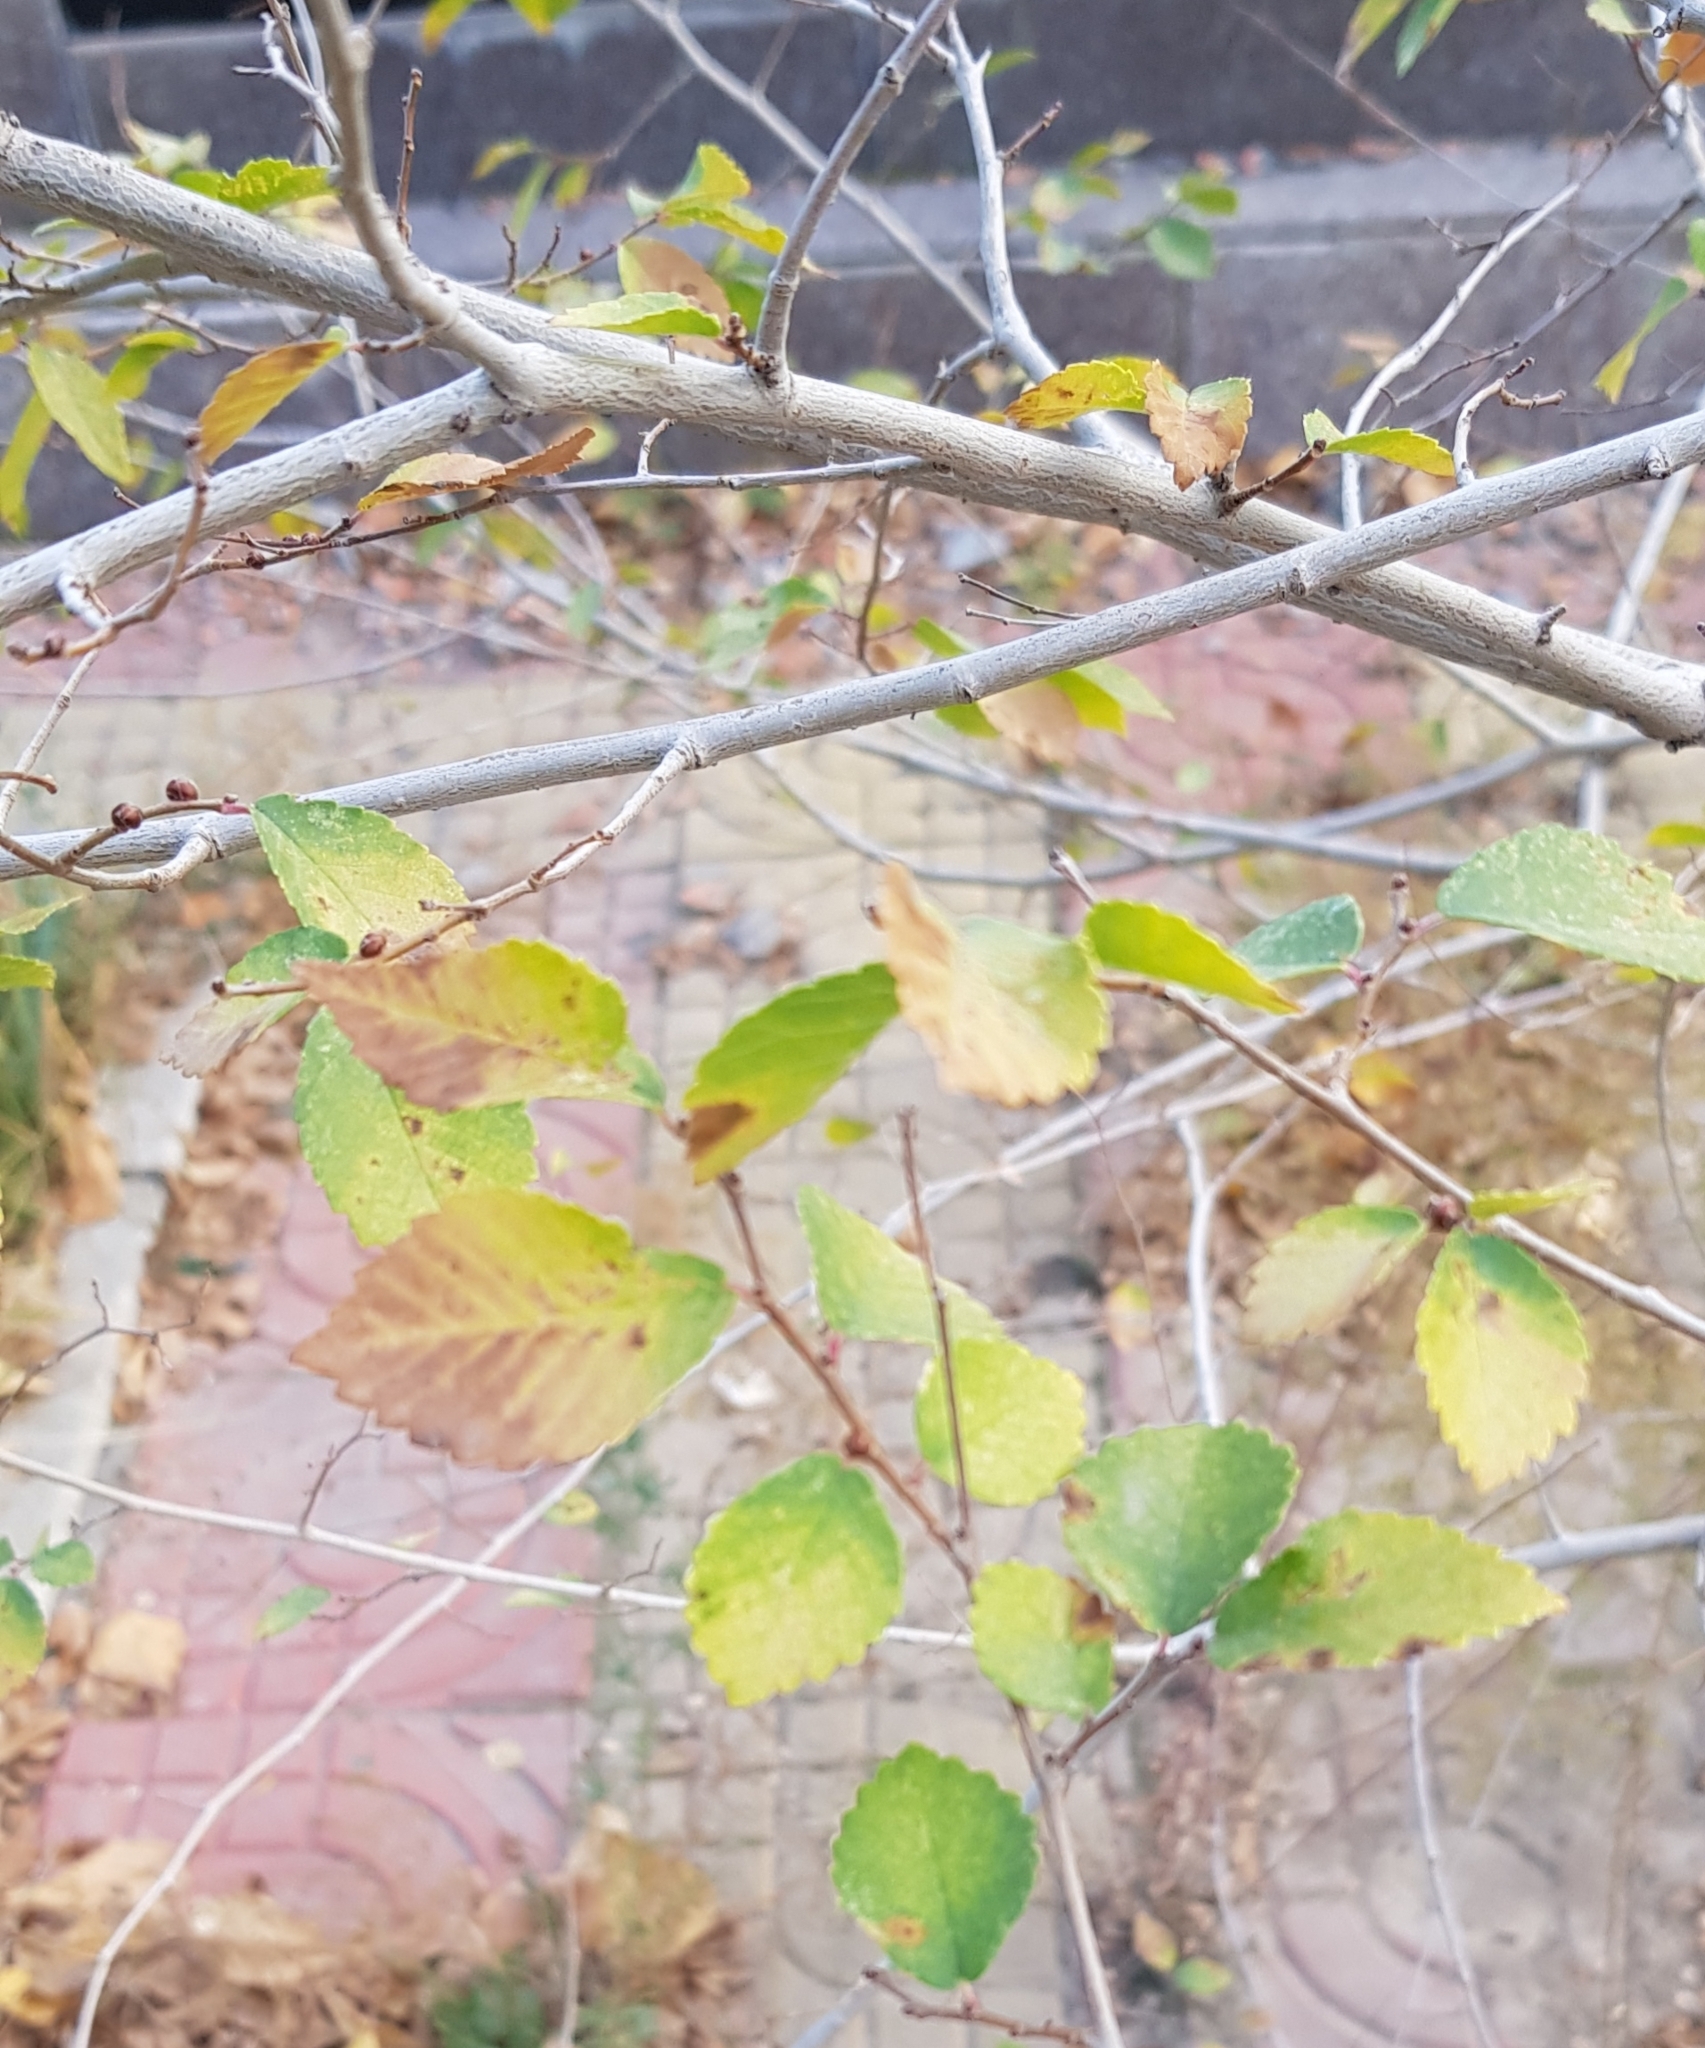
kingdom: Plantae
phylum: Tracheophyta
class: Magnoliopsida
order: Rosales
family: Ulmaceae
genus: Ulmus
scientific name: Ulmus pumila
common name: Siberian elm
